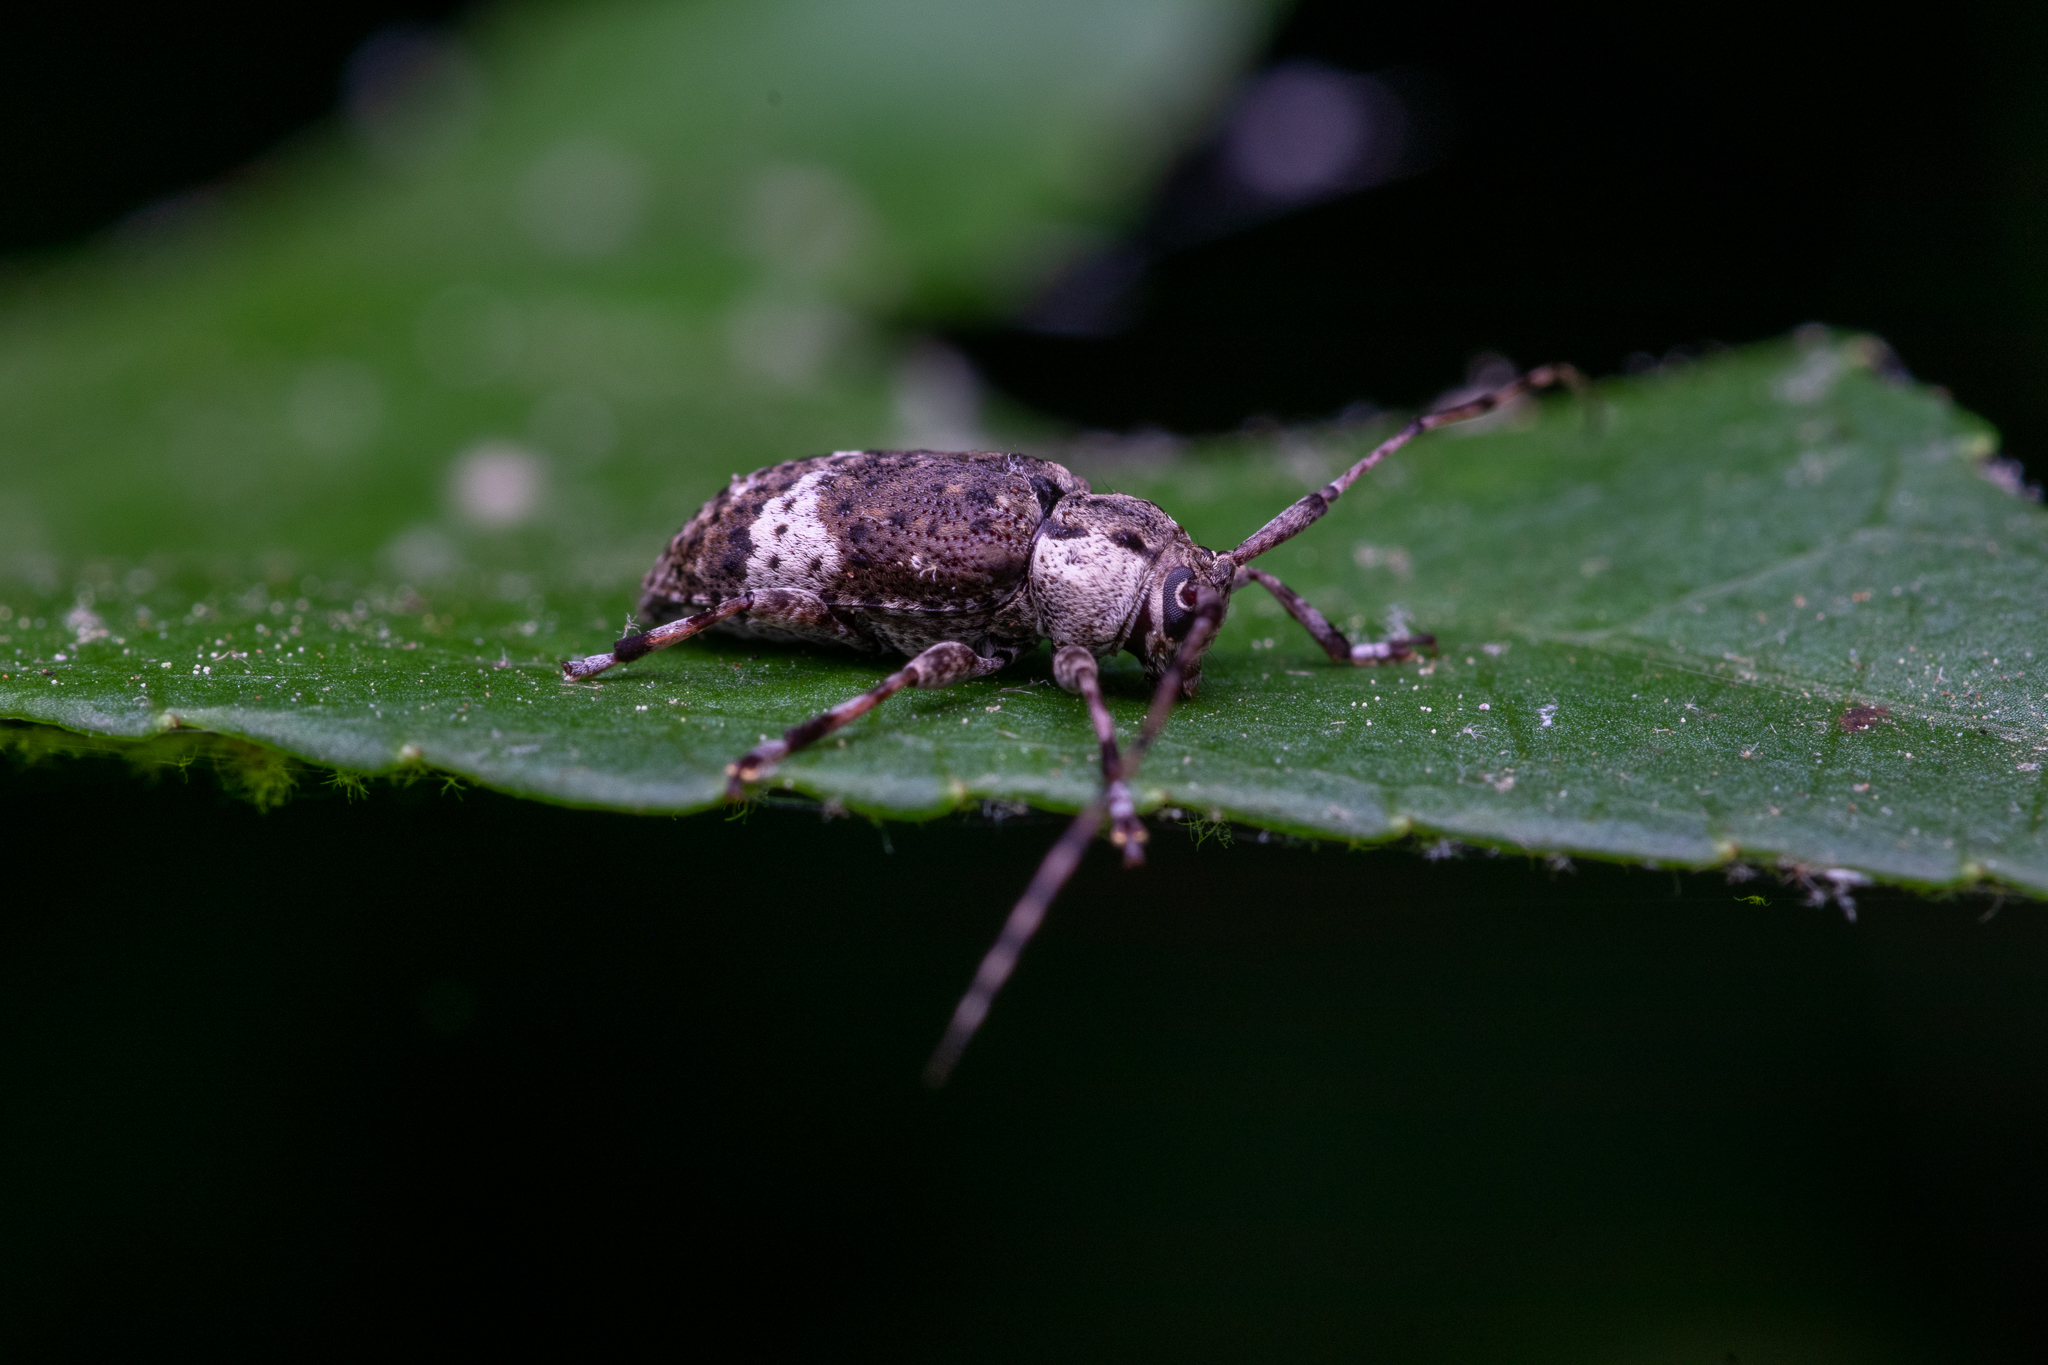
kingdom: Animalia
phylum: Arthropoda
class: Insecta
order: Coleoptera
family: Cerambycidae
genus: Astylopsis
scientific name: Astylopsis macula
